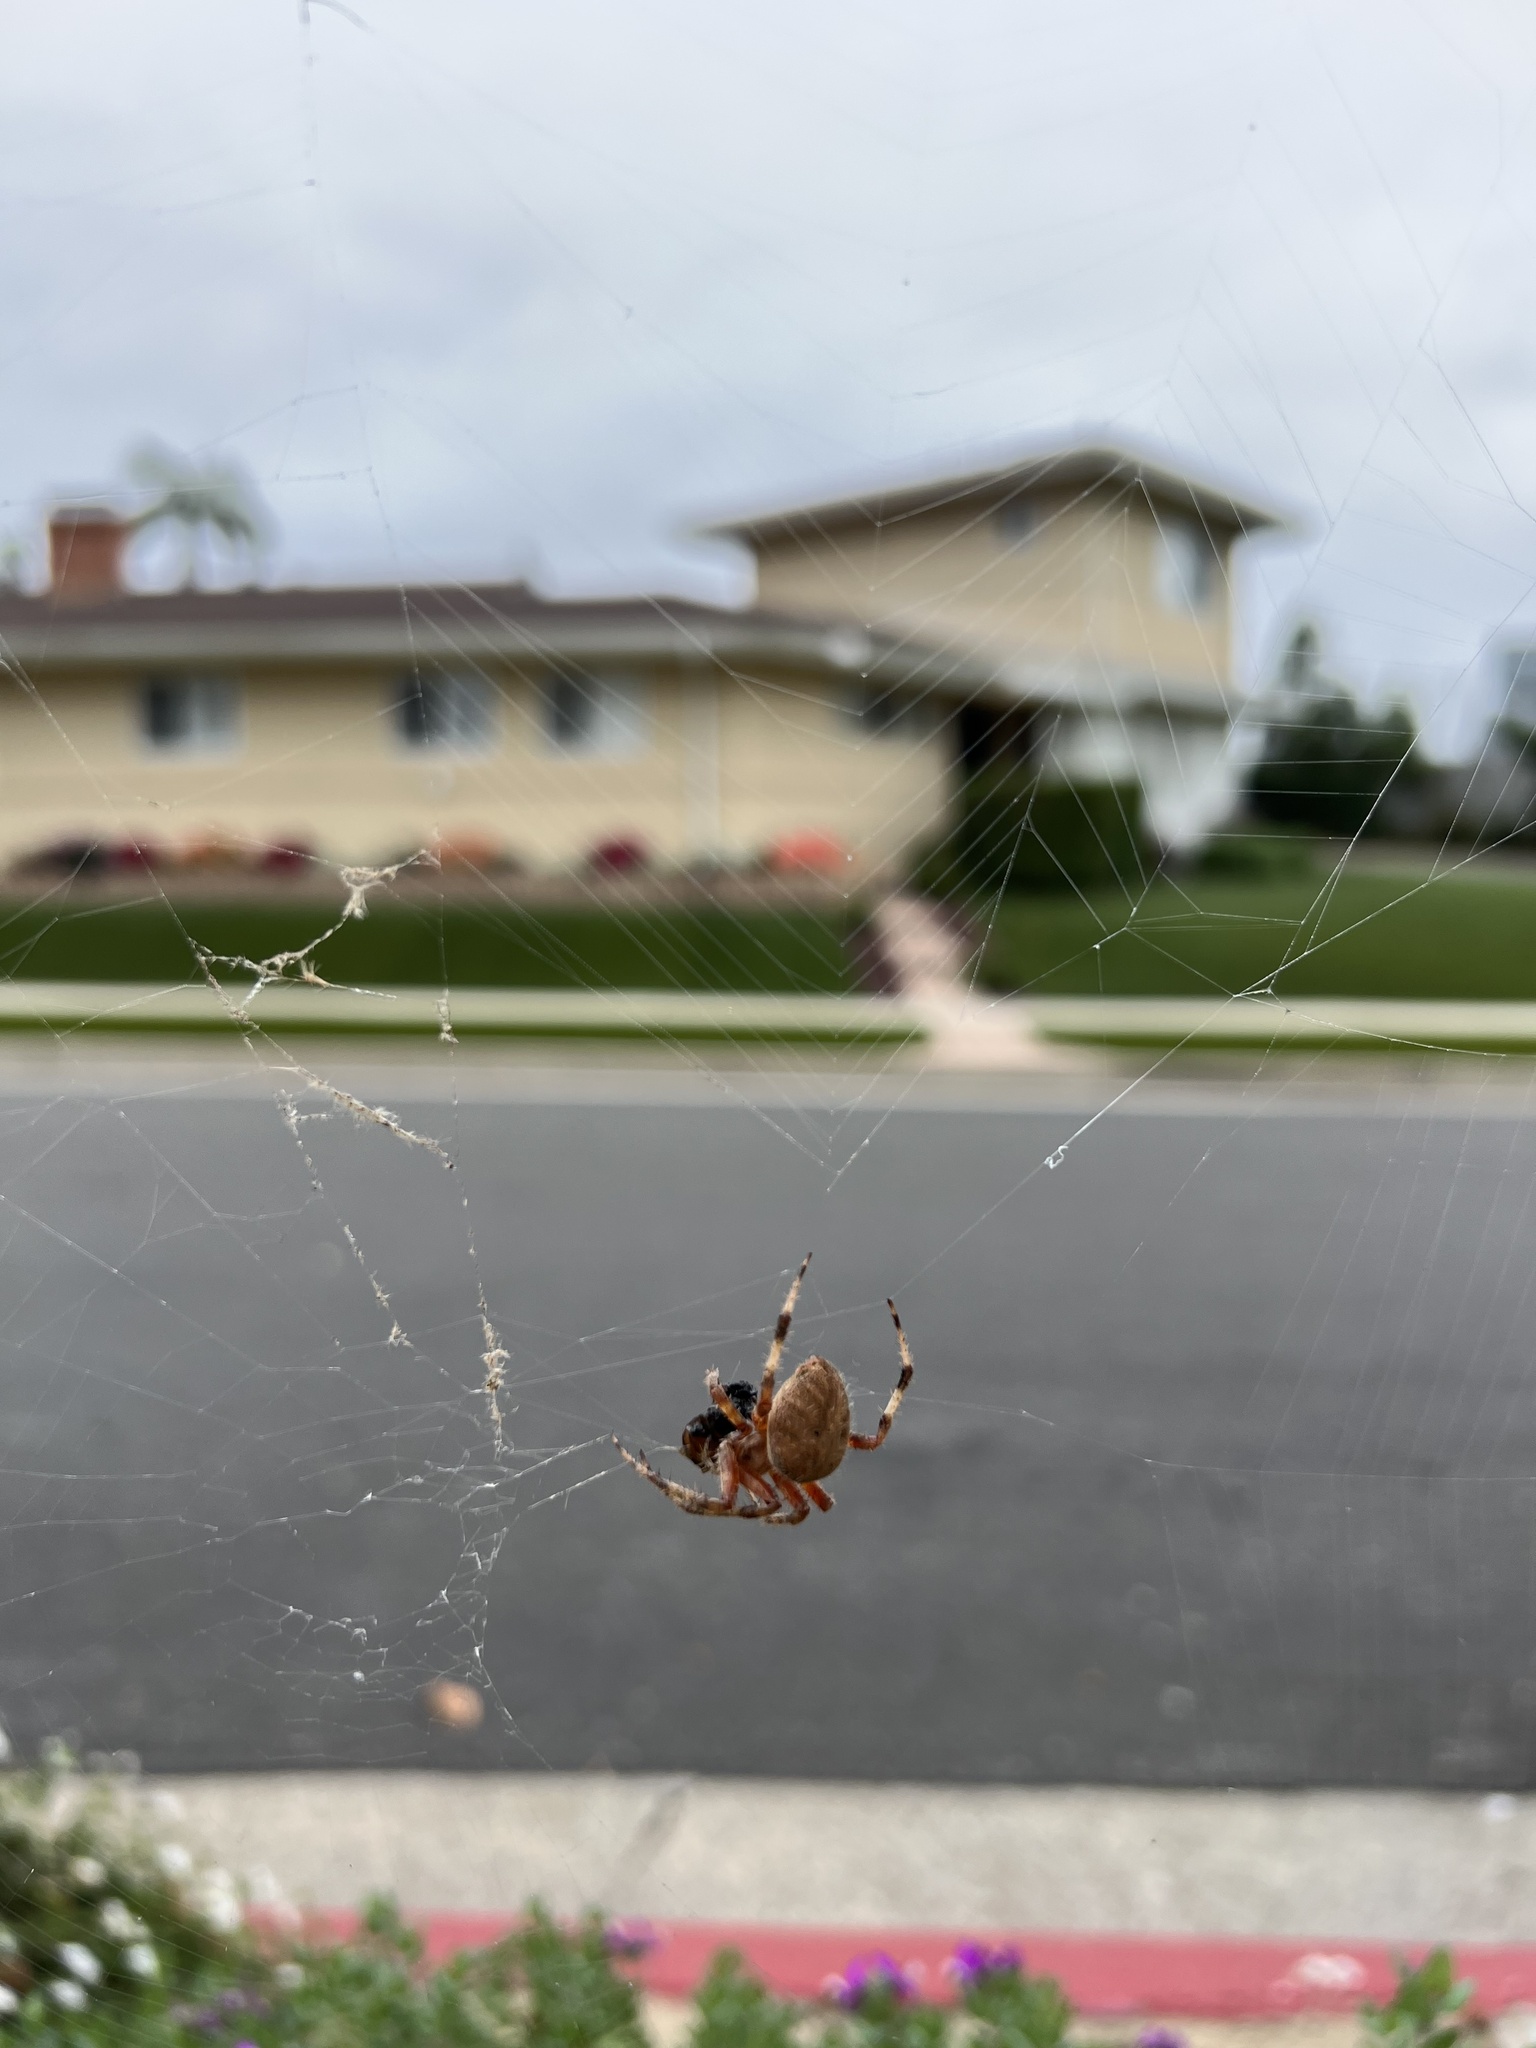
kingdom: Animalia
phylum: Arthropoda
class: Arachnida
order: Araneae
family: Araneidae
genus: Neoscona
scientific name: Neoscona crucifera
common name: Spotted orbweaver
